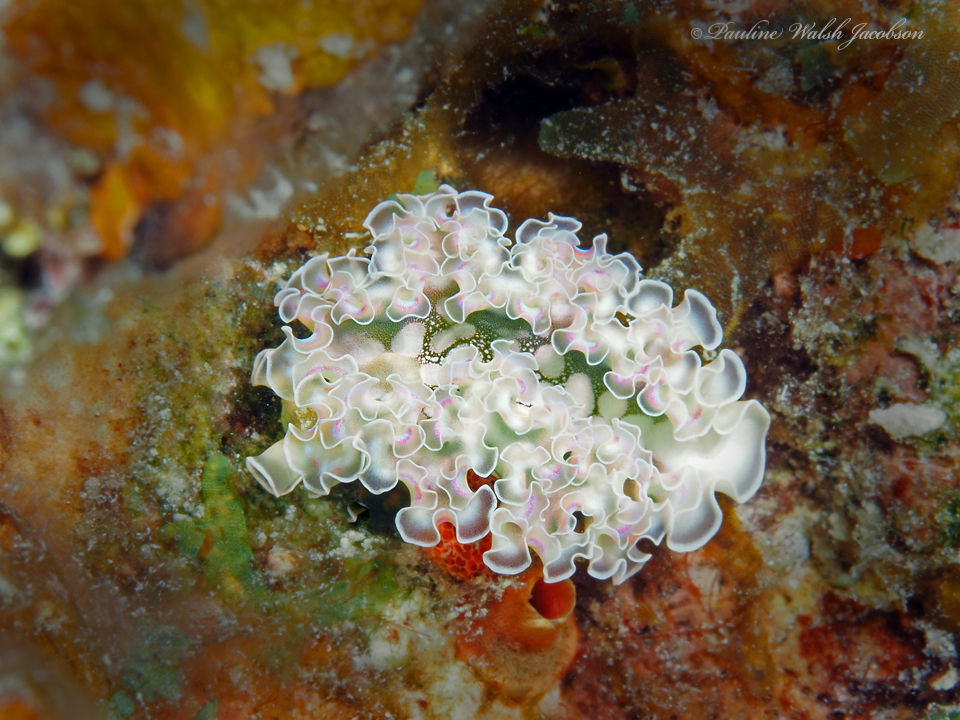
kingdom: Animalia
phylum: Mollusca
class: Gastropoda
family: Plakobranchidae
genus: Elysia
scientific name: Elysia crispata
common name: Lettuce slug
